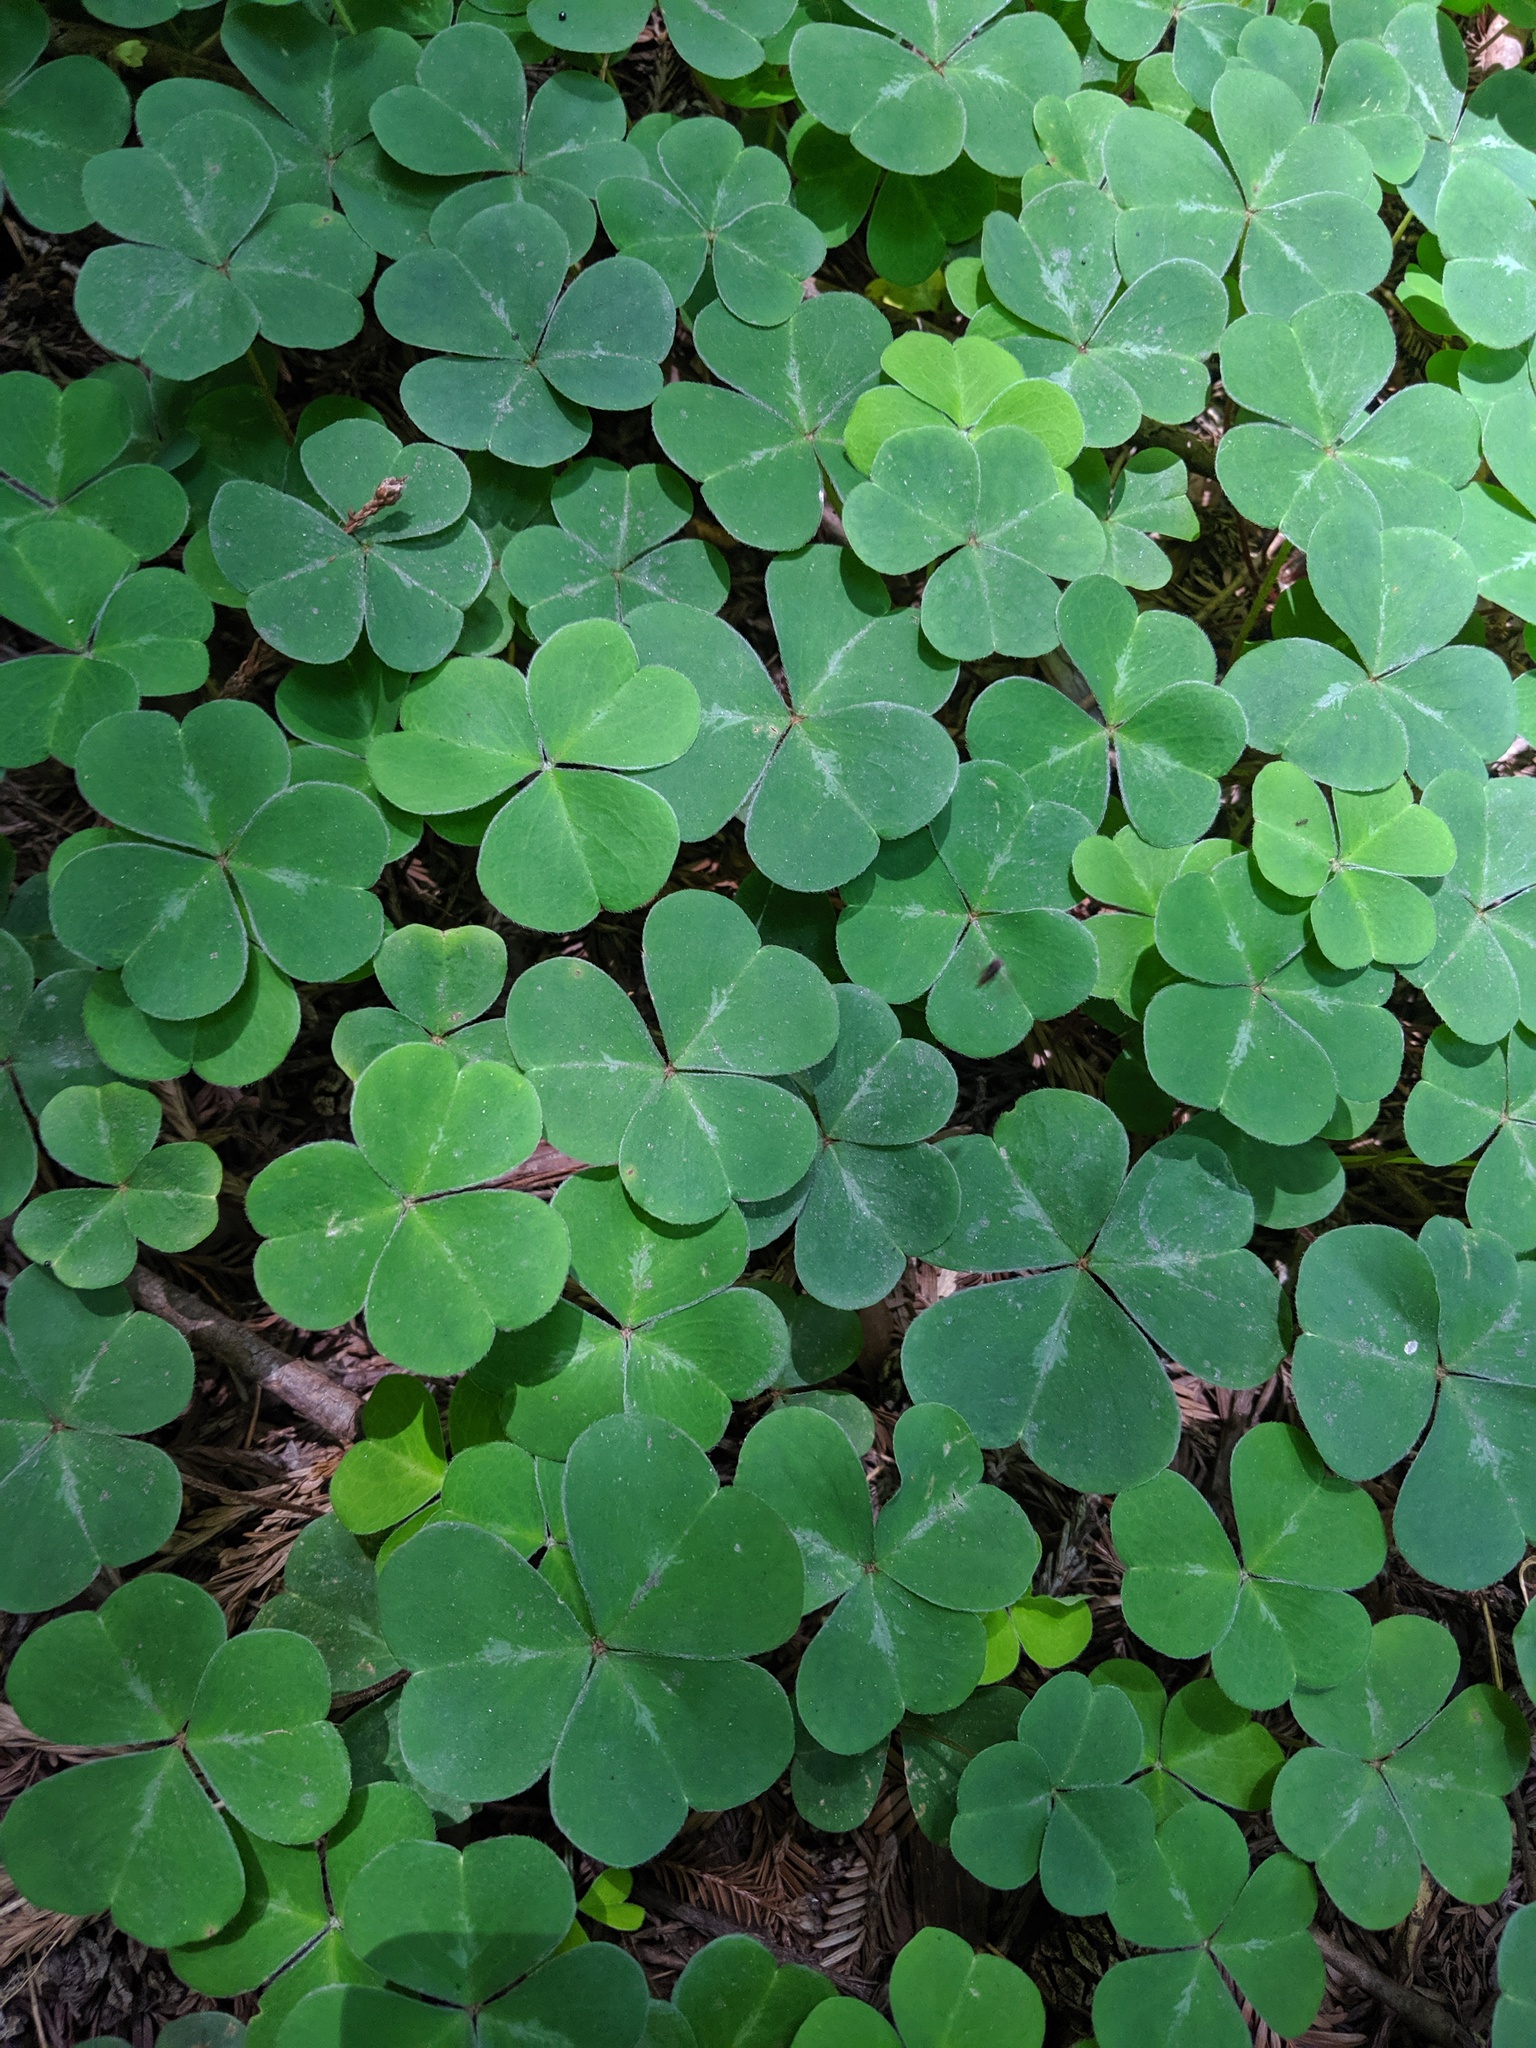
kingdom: Plantae
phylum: Tracheophyta
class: Magnoliopsida
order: Oxalidales
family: Oxalidaceae
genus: Oxalis
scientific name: Oxalis oregana
